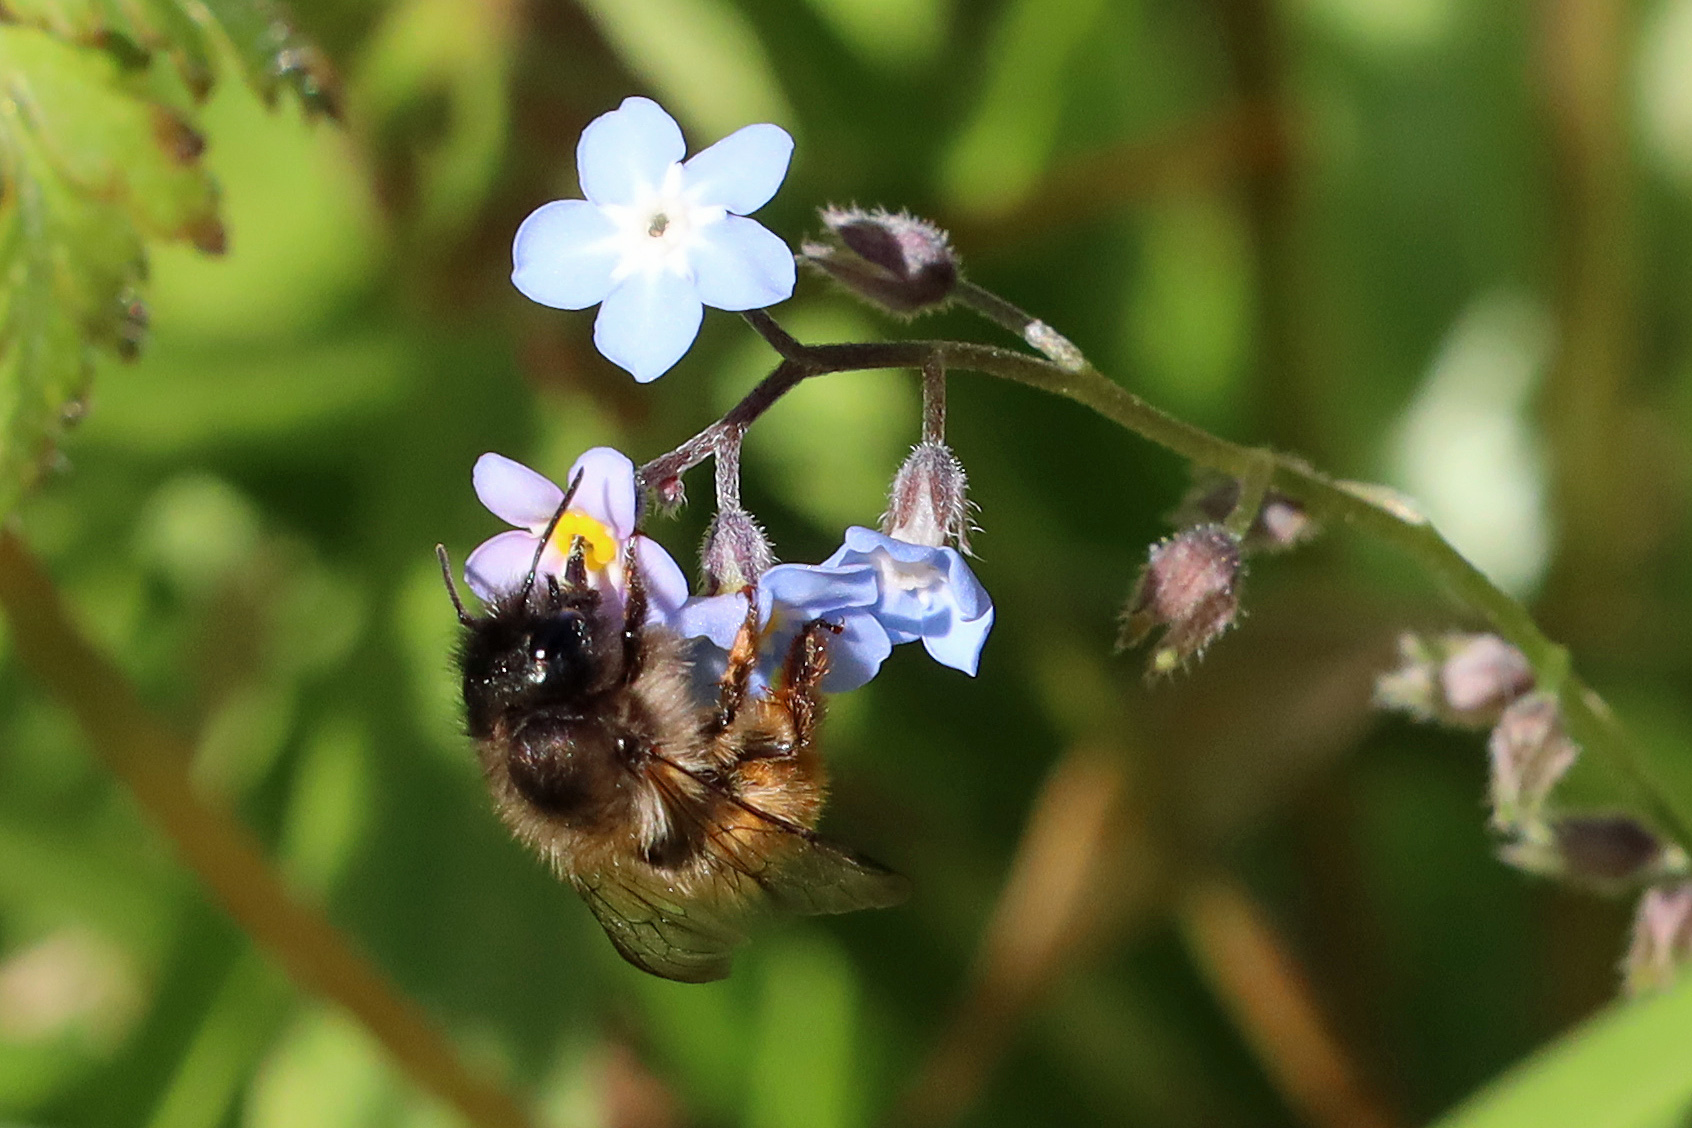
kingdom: Animalia
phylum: Arthropoda
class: Insecta
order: Hymenoptera
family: Megachilidae
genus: Osmia
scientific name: Osmia bicornis
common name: Red mason bee
